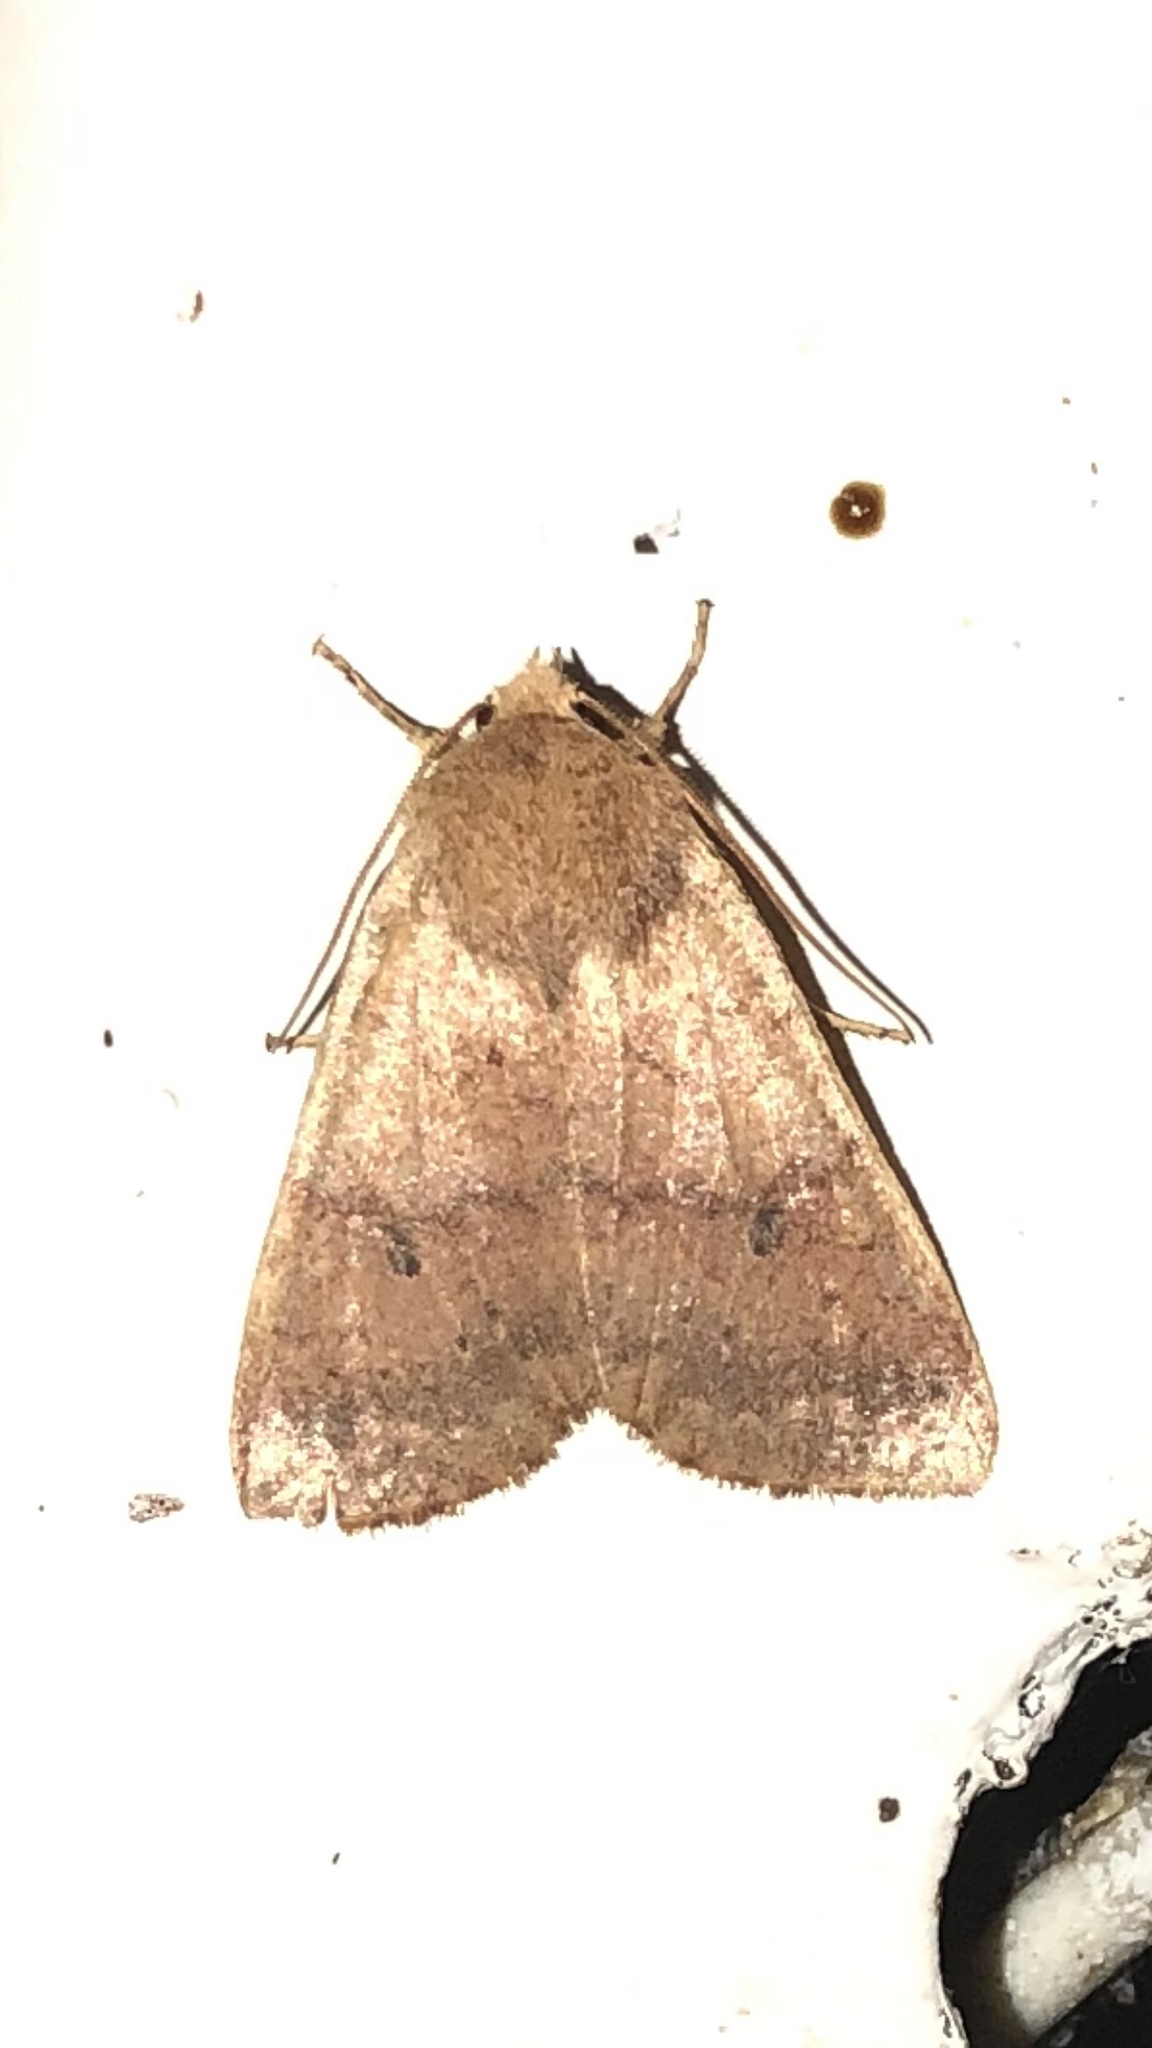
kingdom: Animalia
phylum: Arthropoda
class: Insecta
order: Lepidoptera
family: Noctuidae
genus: Agrochola
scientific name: Agrochola bicolorago
